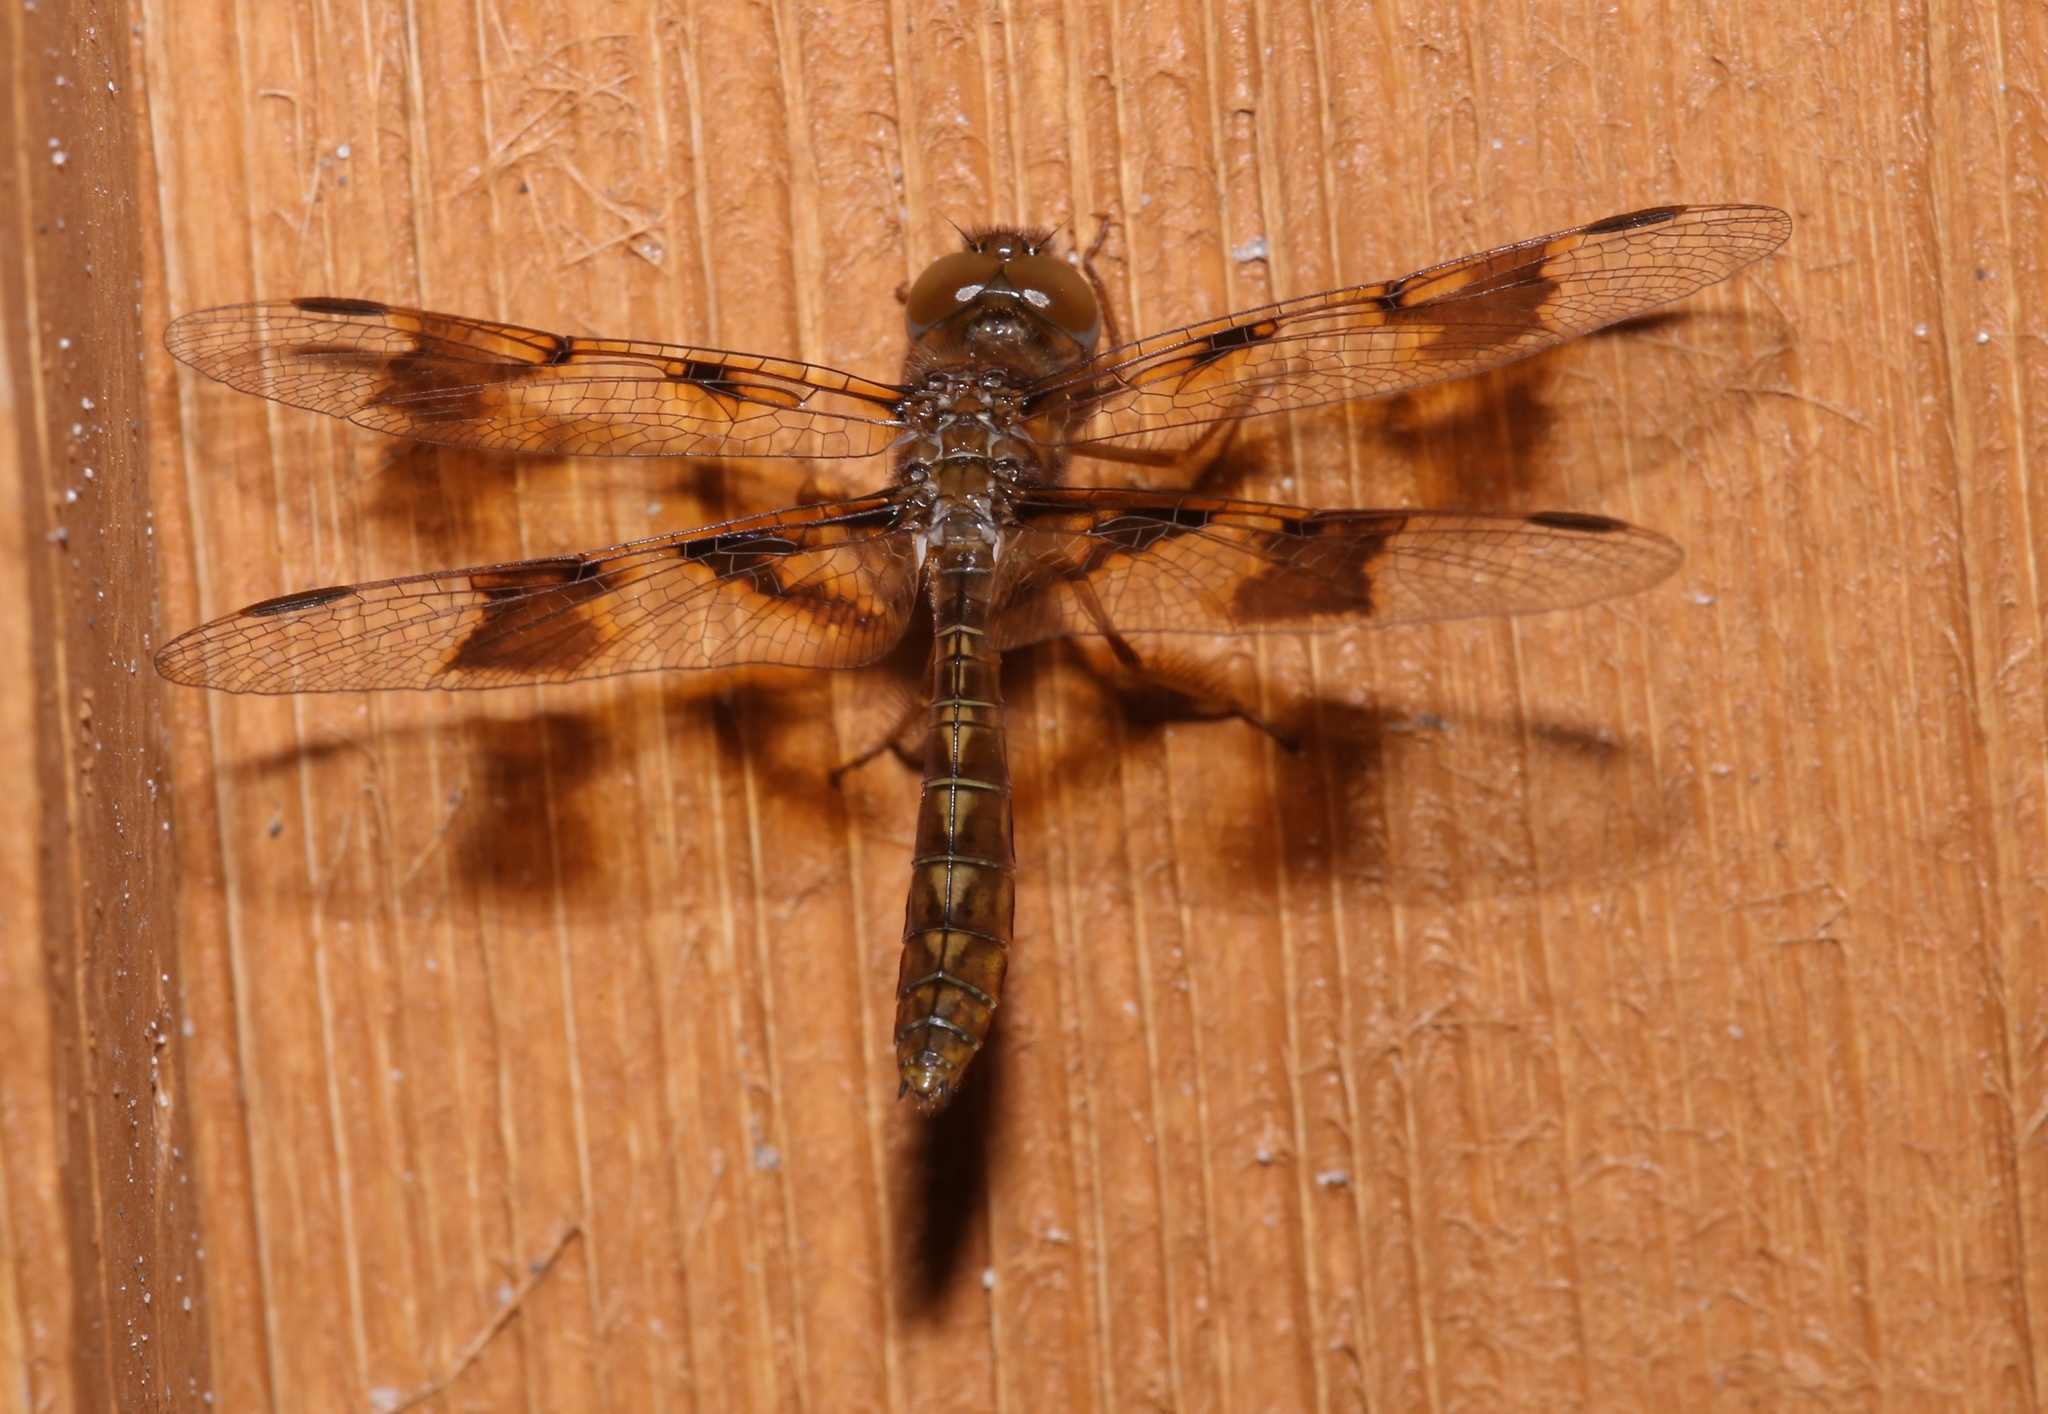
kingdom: Animalia
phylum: Arthropoda
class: Insecta
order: Odonata
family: Libellulidae
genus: Perithemis
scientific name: Perithemis tenera
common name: Eastern amberwing
